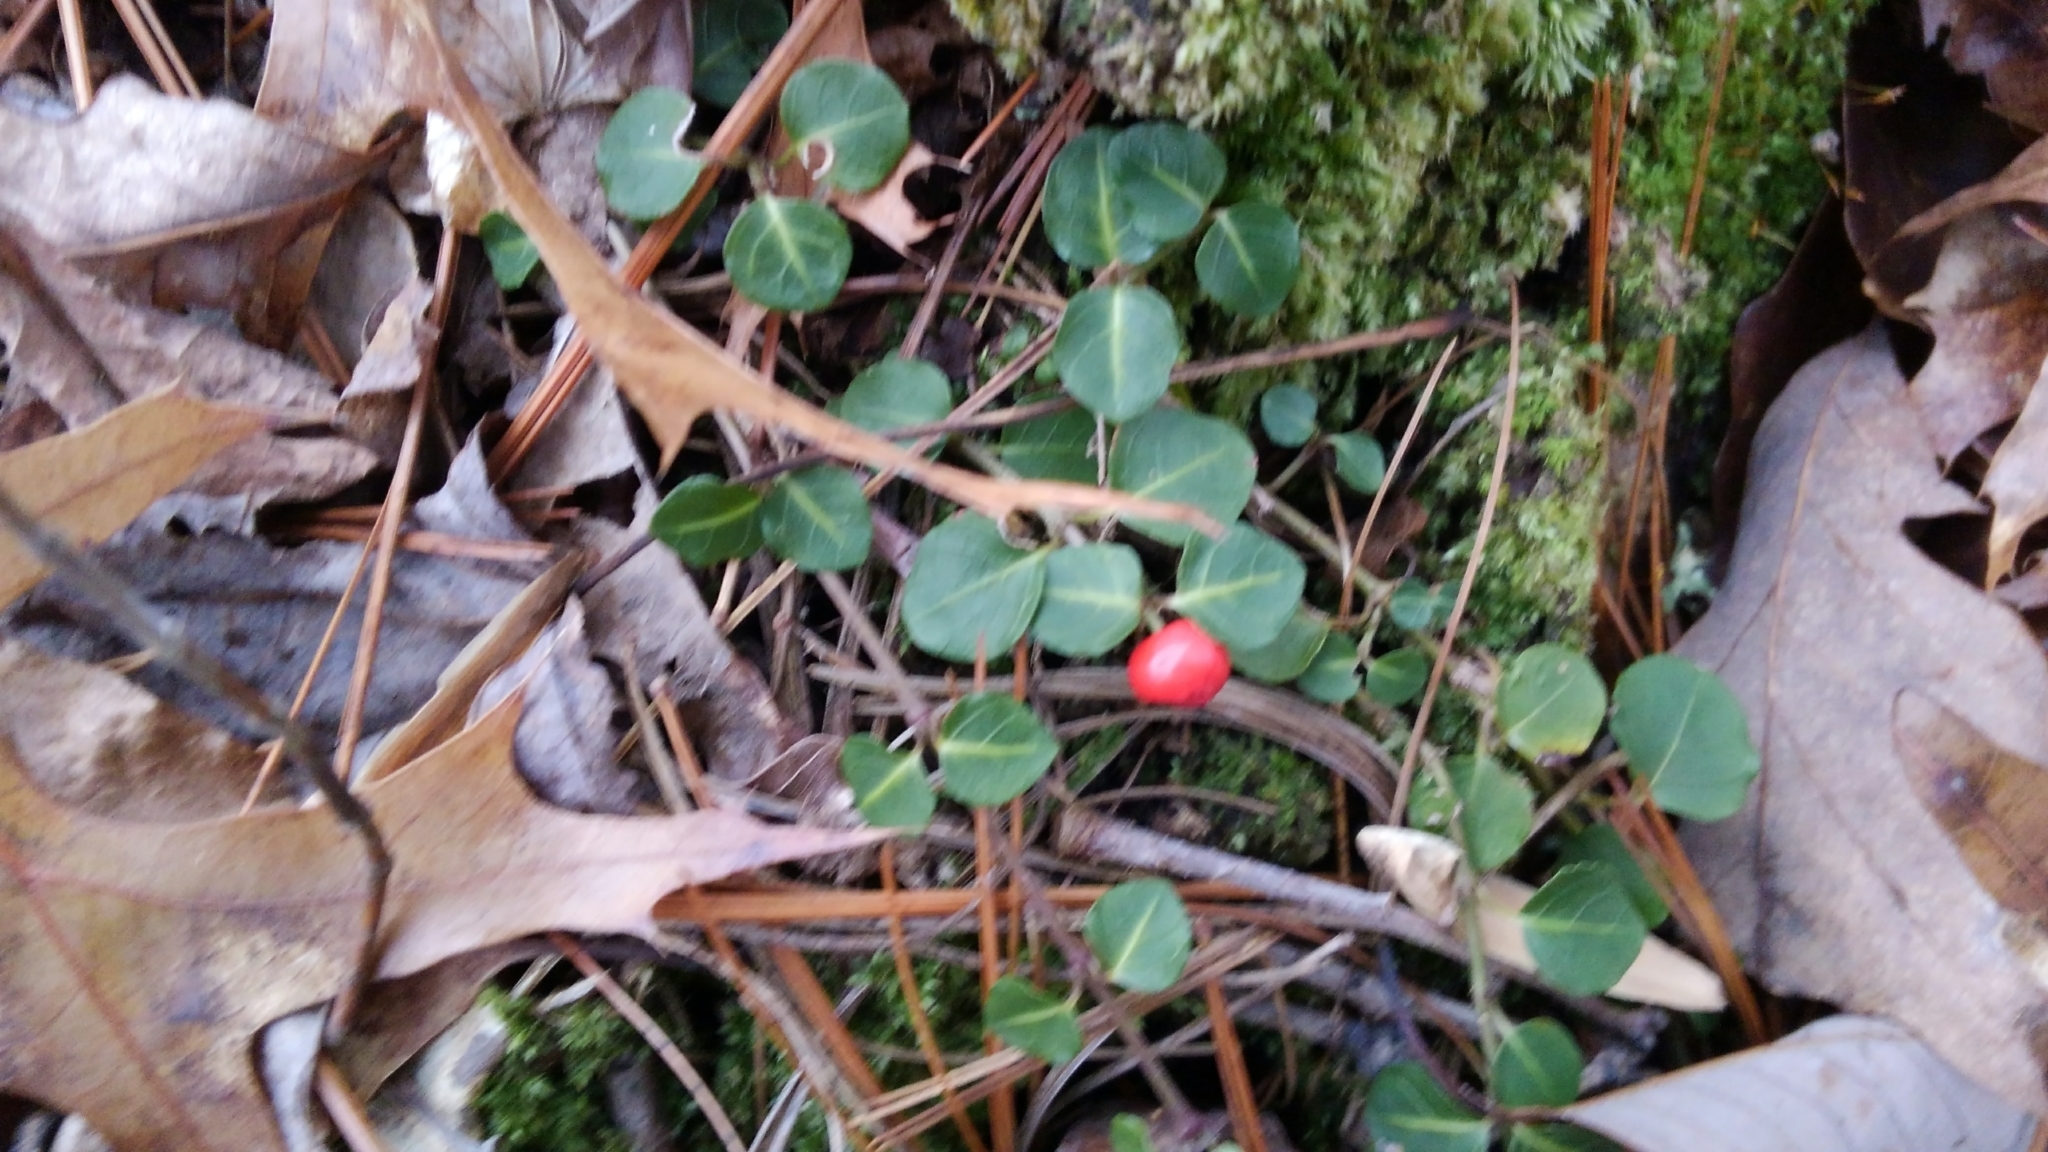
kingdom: Plantae
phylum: Tracheophyta
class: Magnoliopsida
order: Gentianales
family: Rubiaceae
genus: Mitchella
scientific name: Mitchella repens
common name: Partridge-berry
